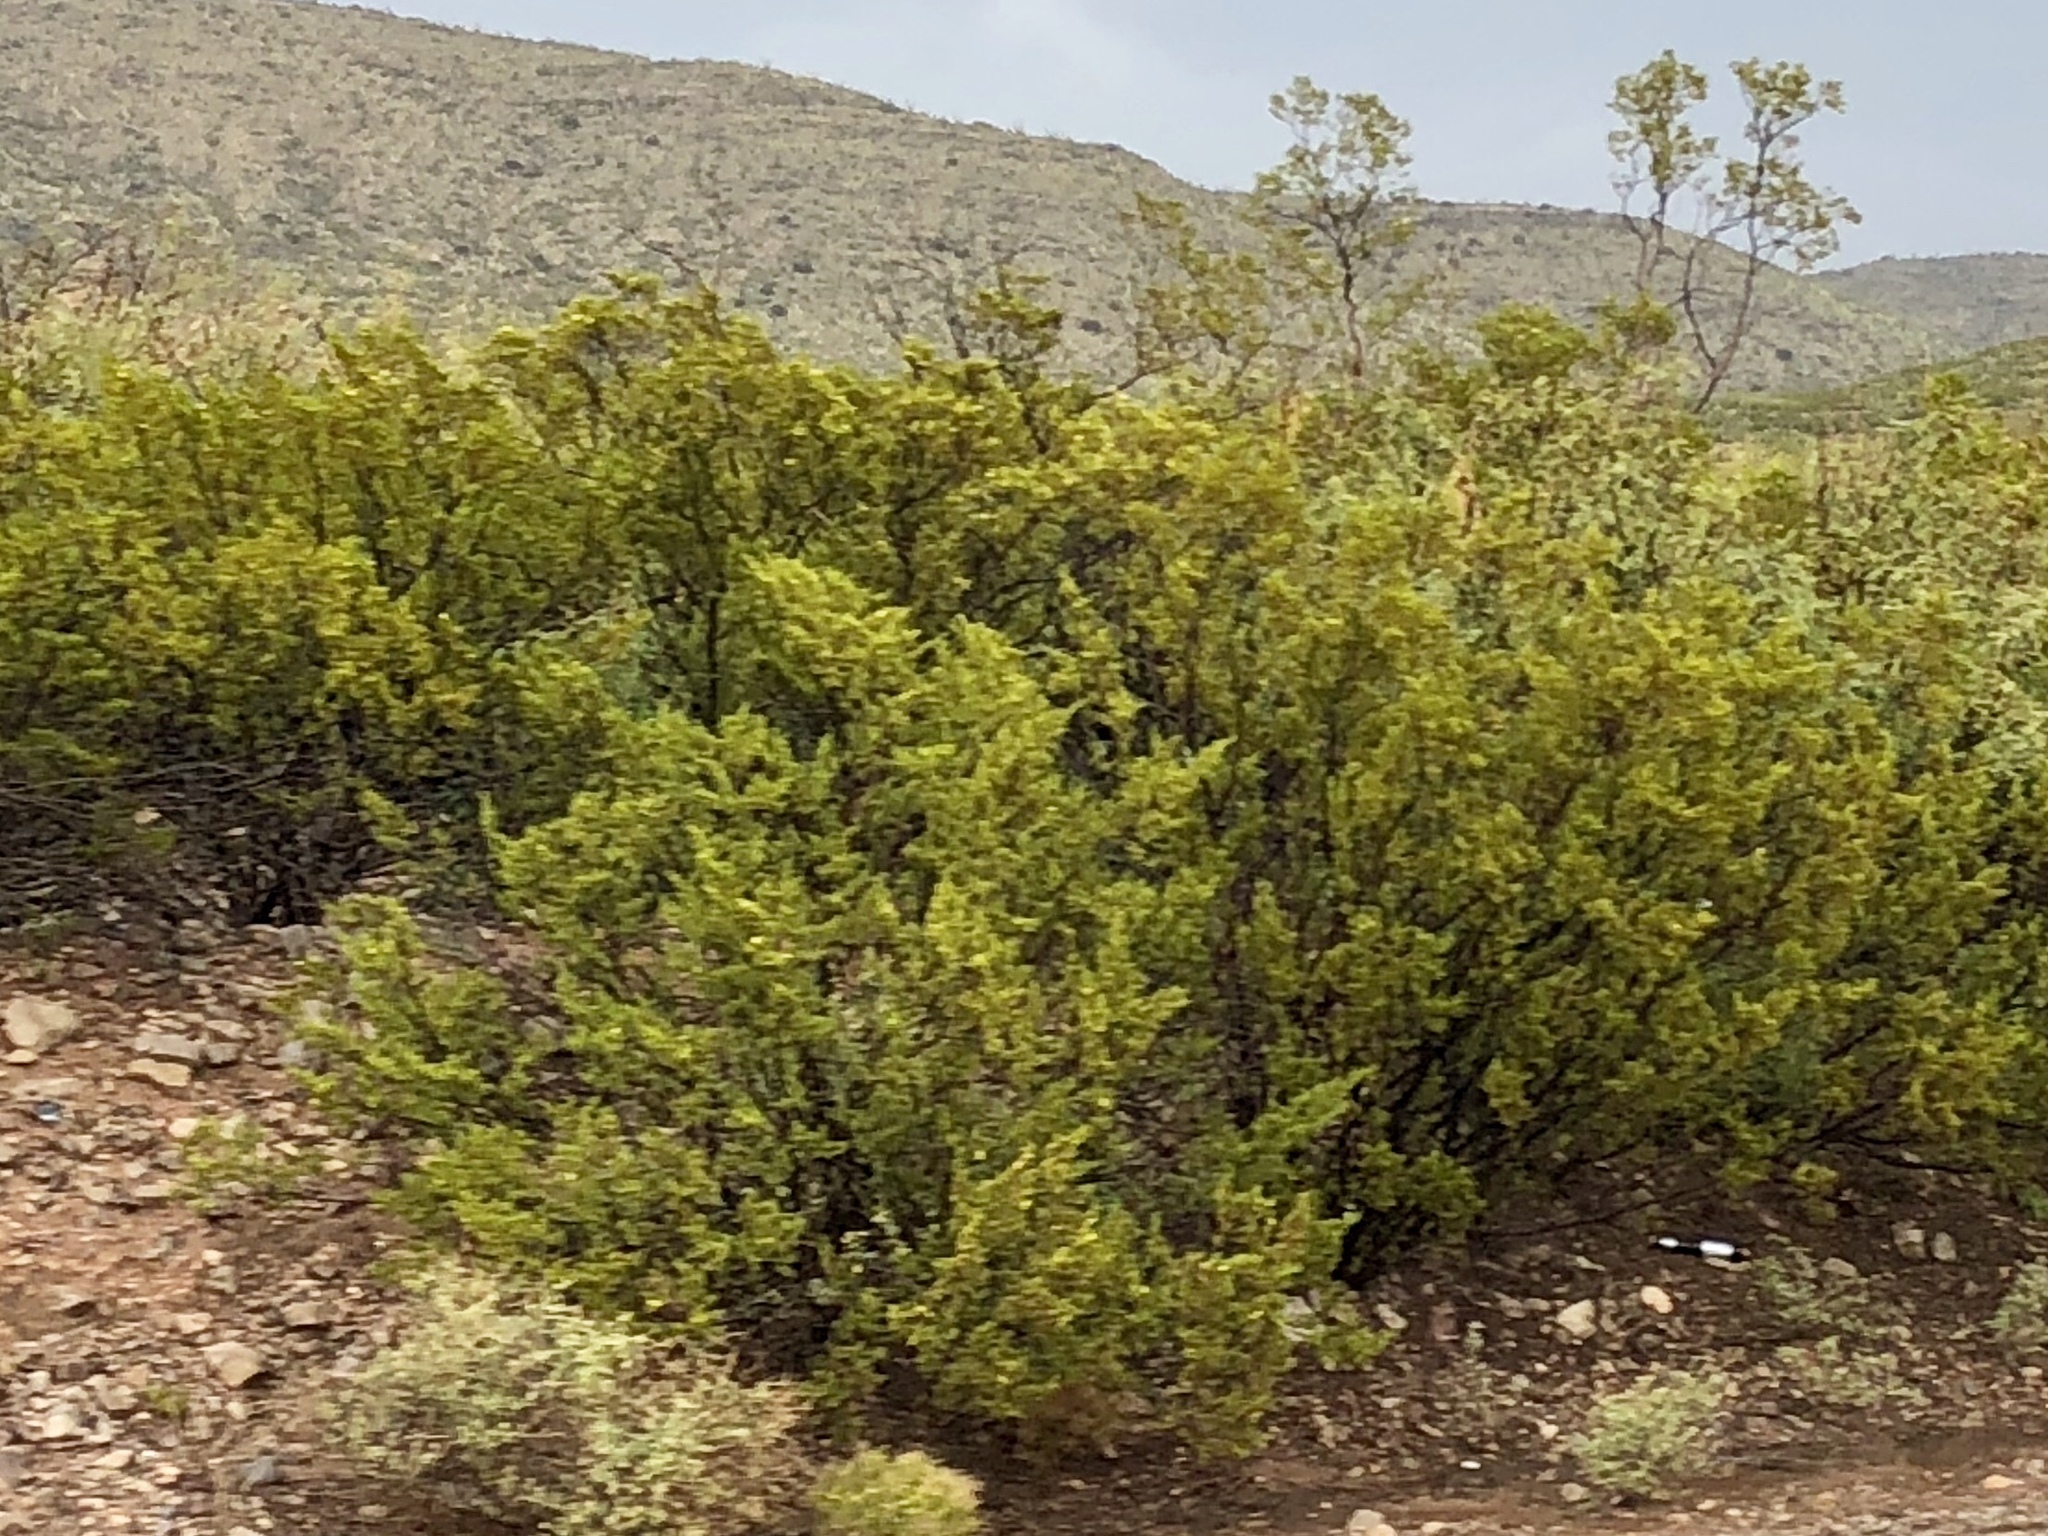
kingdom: Plantae
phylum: Tracheophyta
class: Magnoliopsida
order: Zygophyllales
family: Zygophyllaceae
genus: Larrea
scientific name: Larrea tridentata
